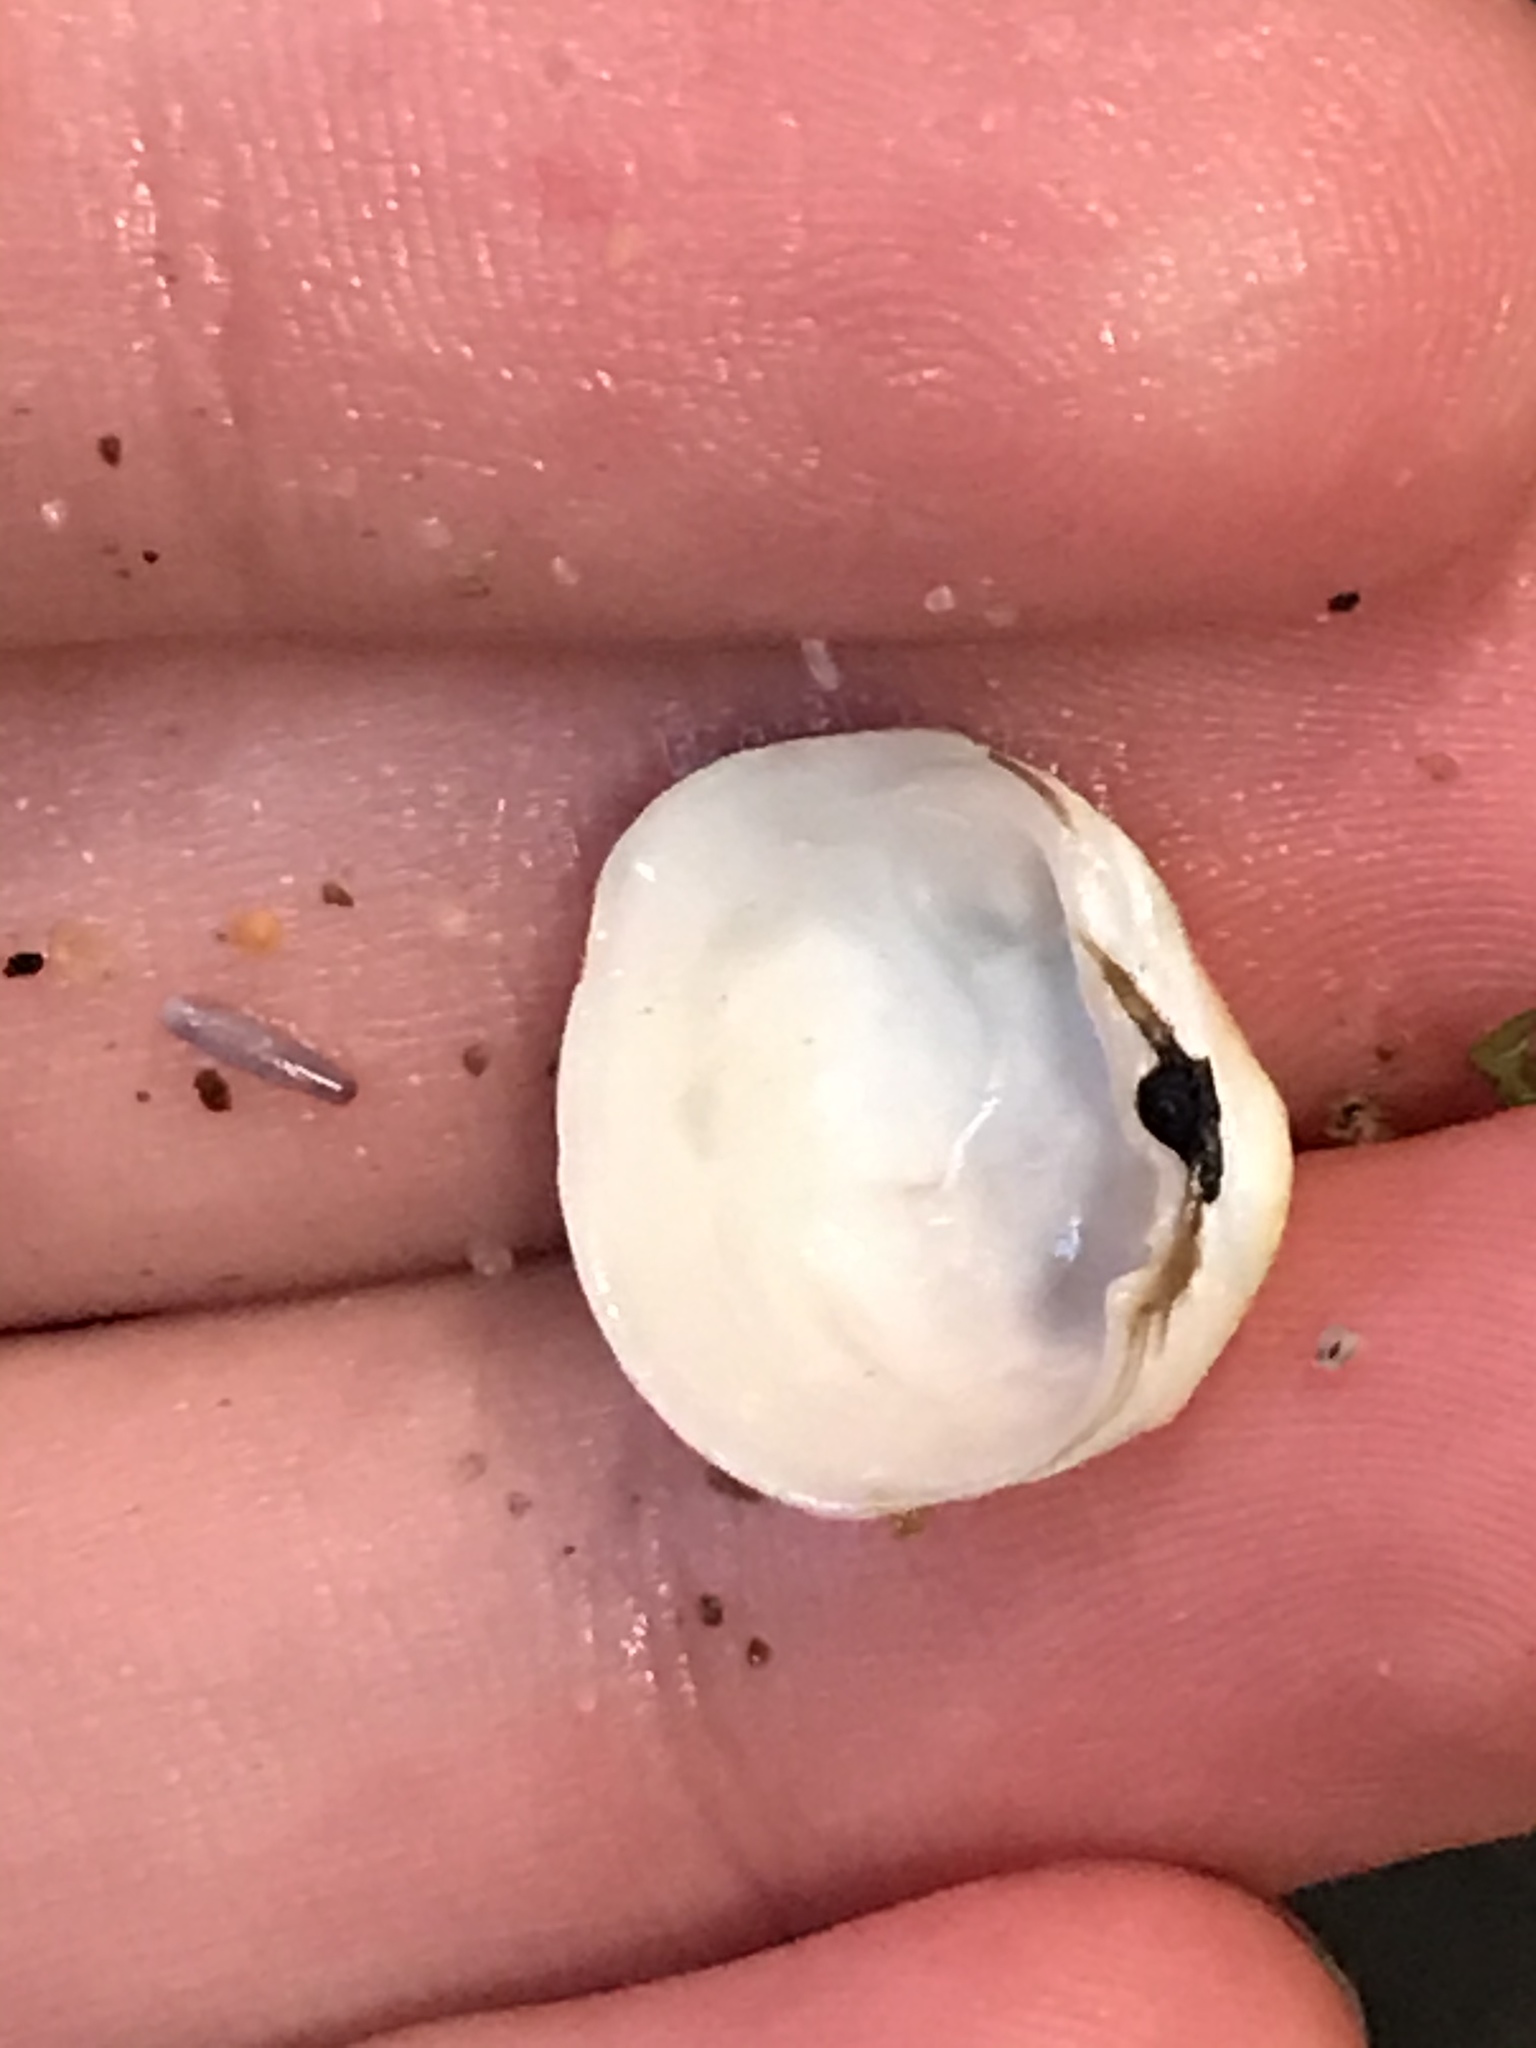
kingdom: Animalia
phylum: Mollusca
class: Bivalvia
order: Venerida
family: Veneridae
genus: Petricola
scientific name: Petricola carditoides
